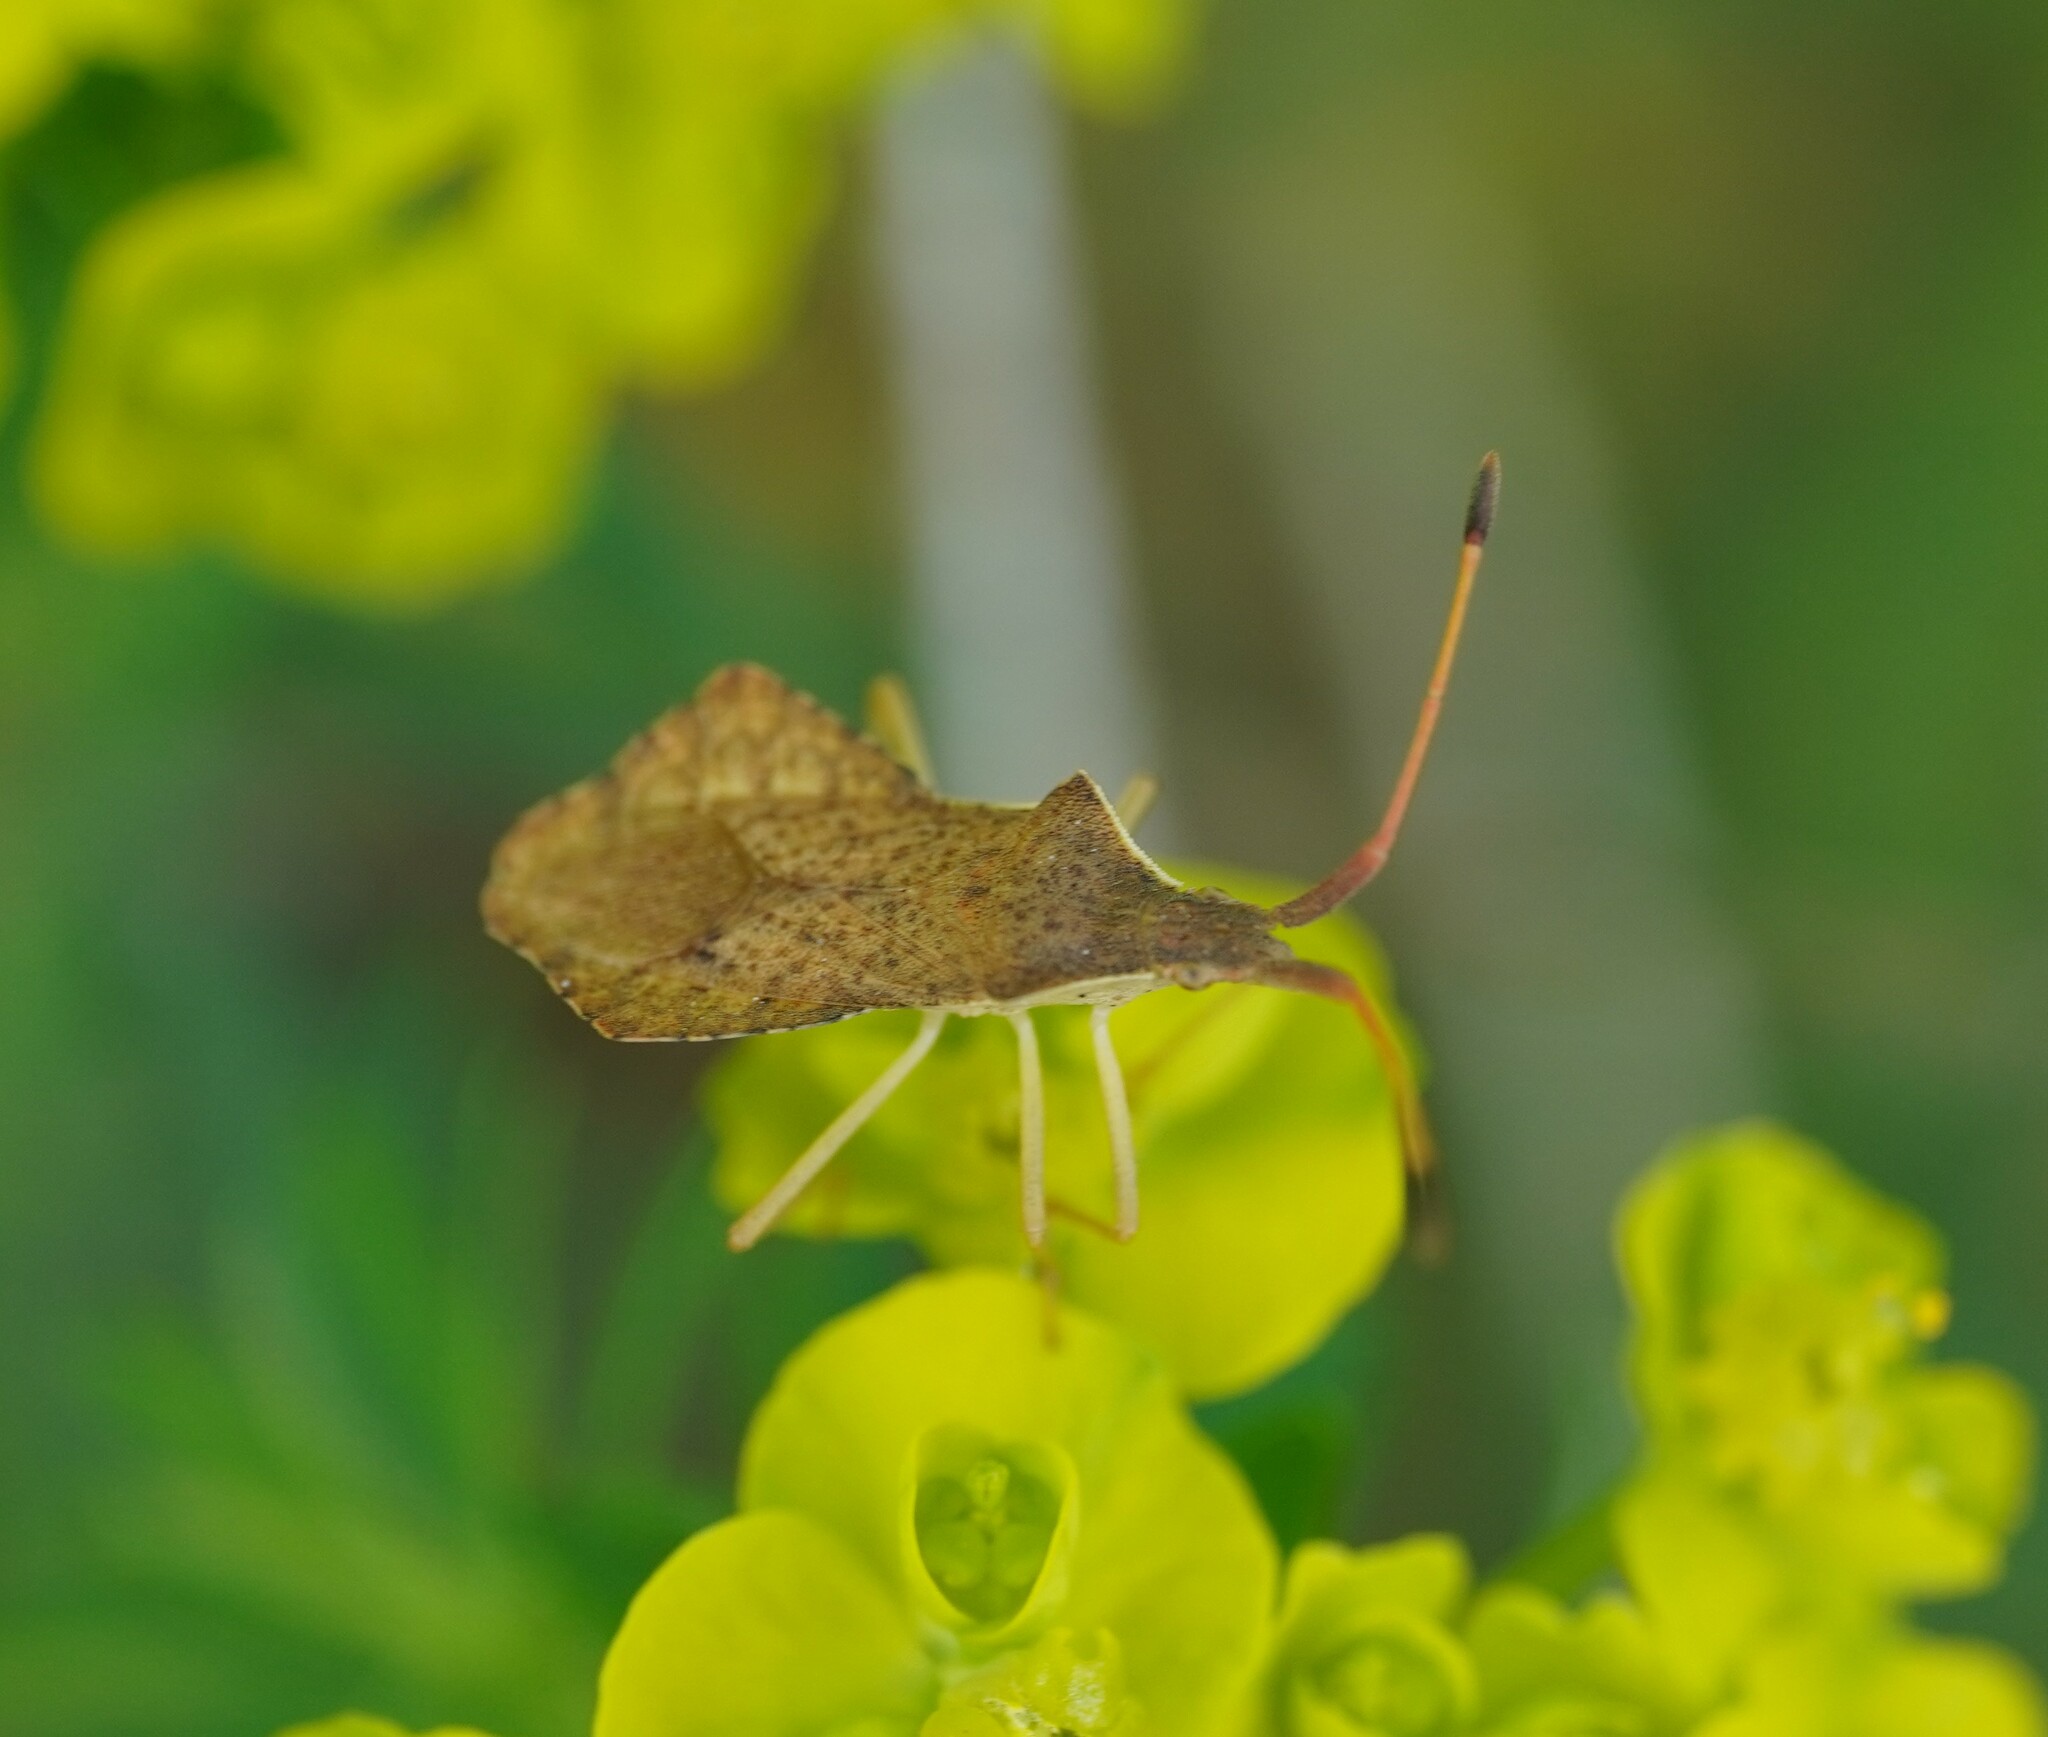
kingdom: Animalia
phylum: Arthropoda
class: Insecta
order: Hemiptera
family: Coreidae
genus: Syromastus
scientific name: Syromastus rhombeus
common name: Rhombic leatherbug
